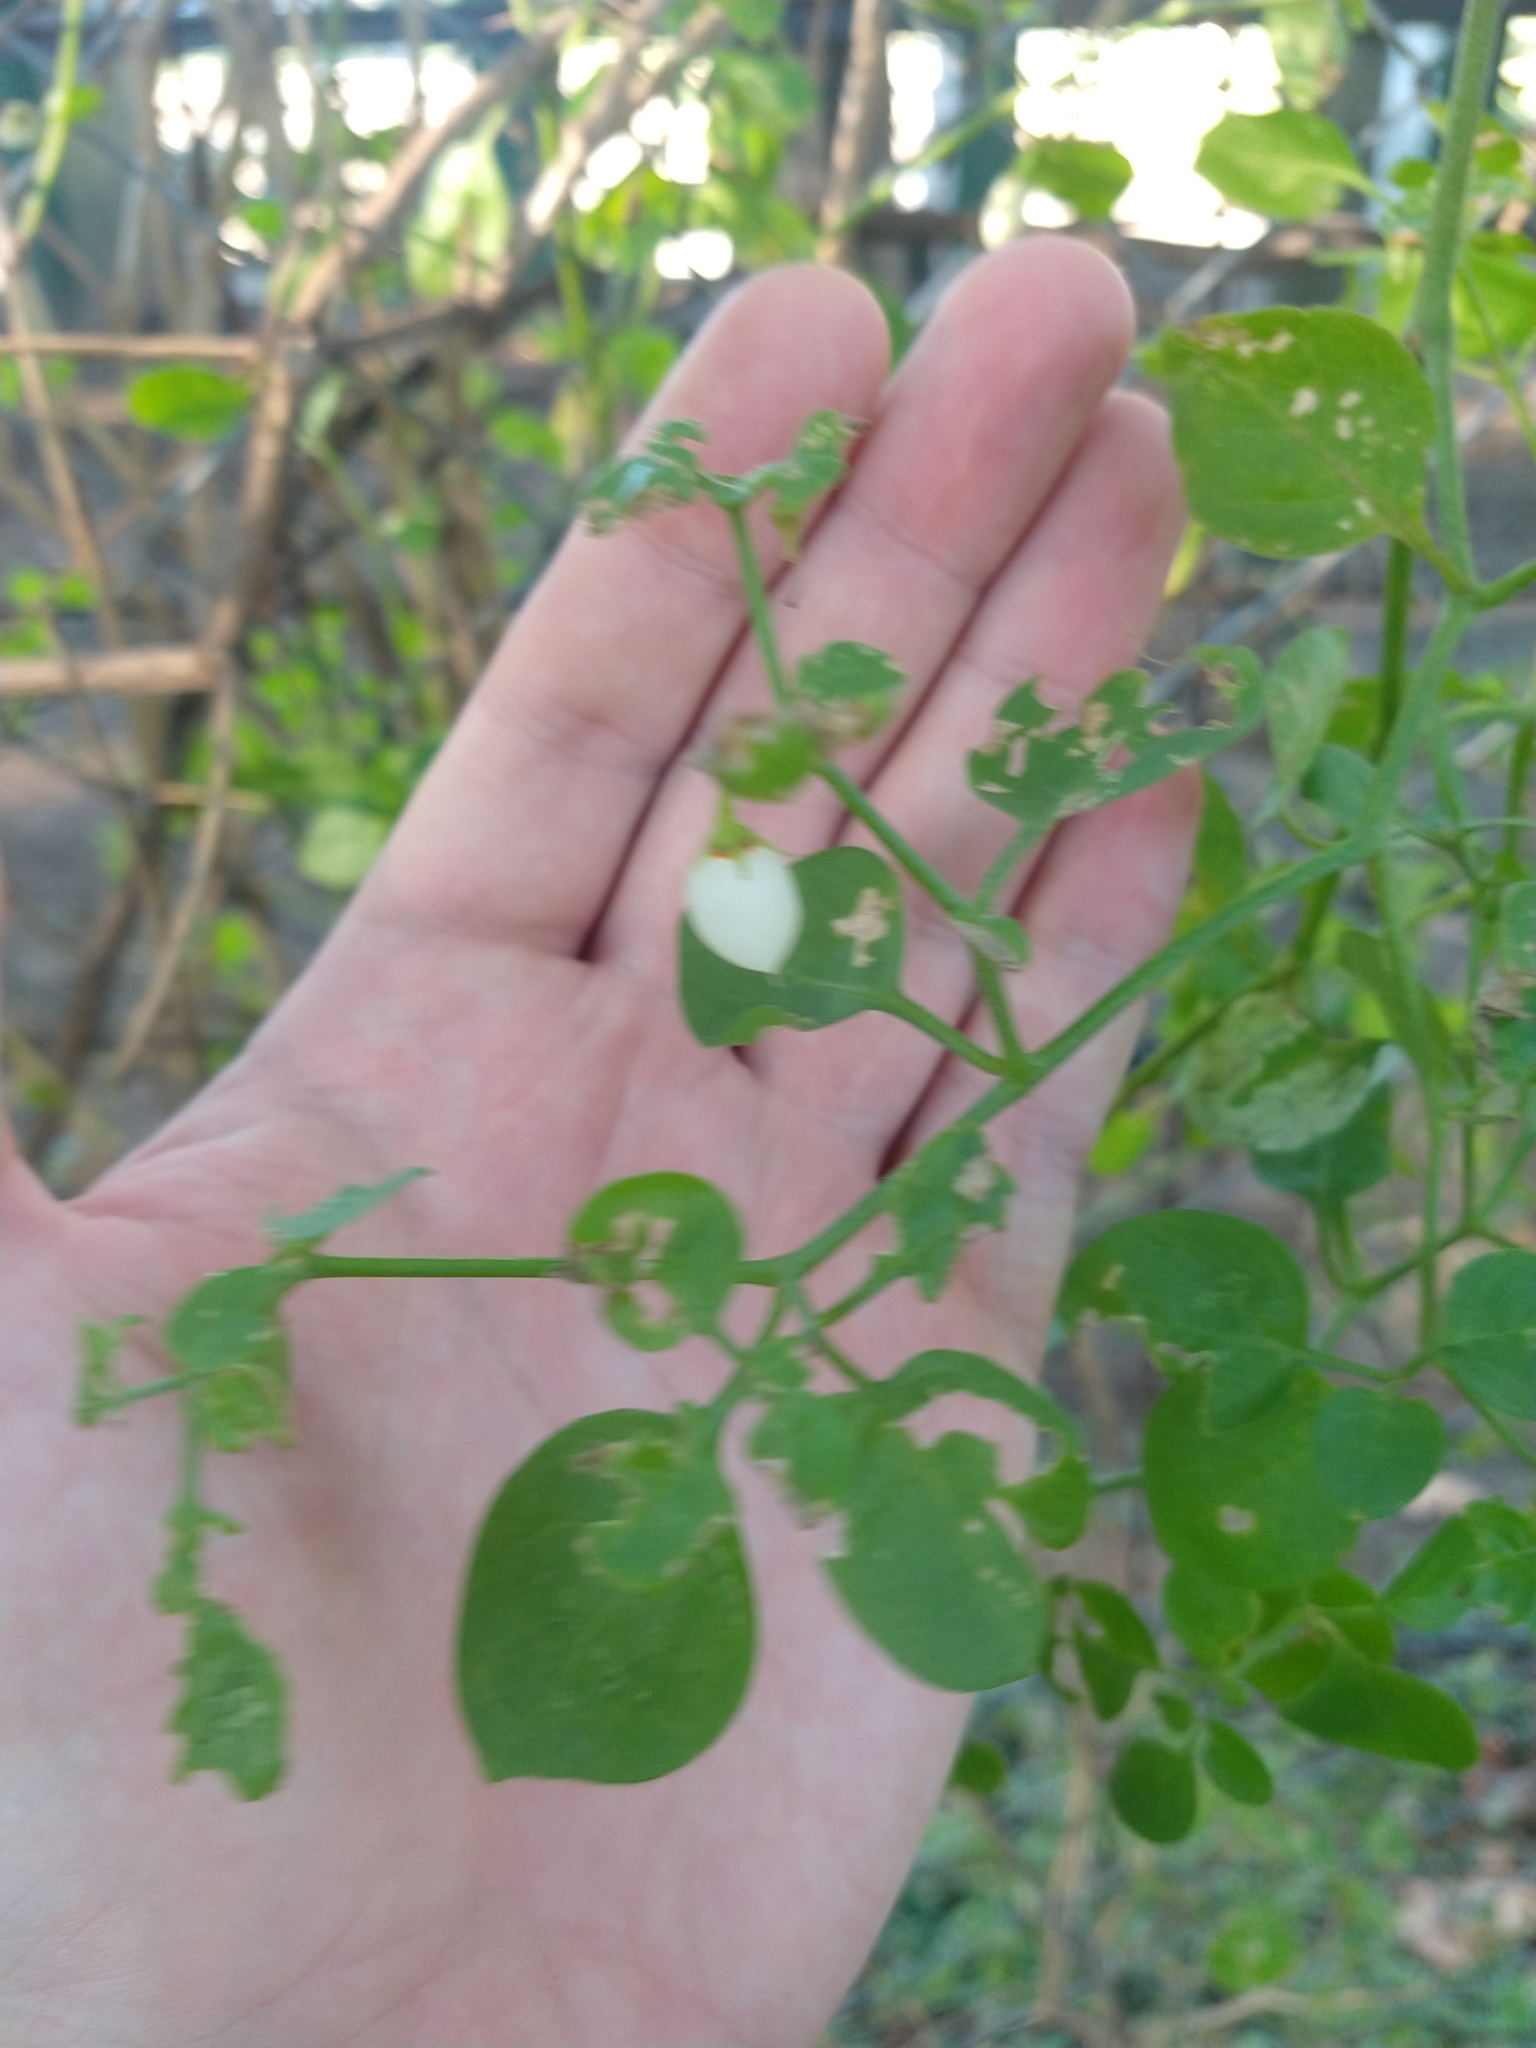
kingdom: Plantae
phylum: Tracheophyta
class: Magnoliopsida
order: Solanales
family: Solanaceae
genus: Salpichroa
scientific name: Salpichroa origanifolia
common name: Lily-of-the-valley-vine
